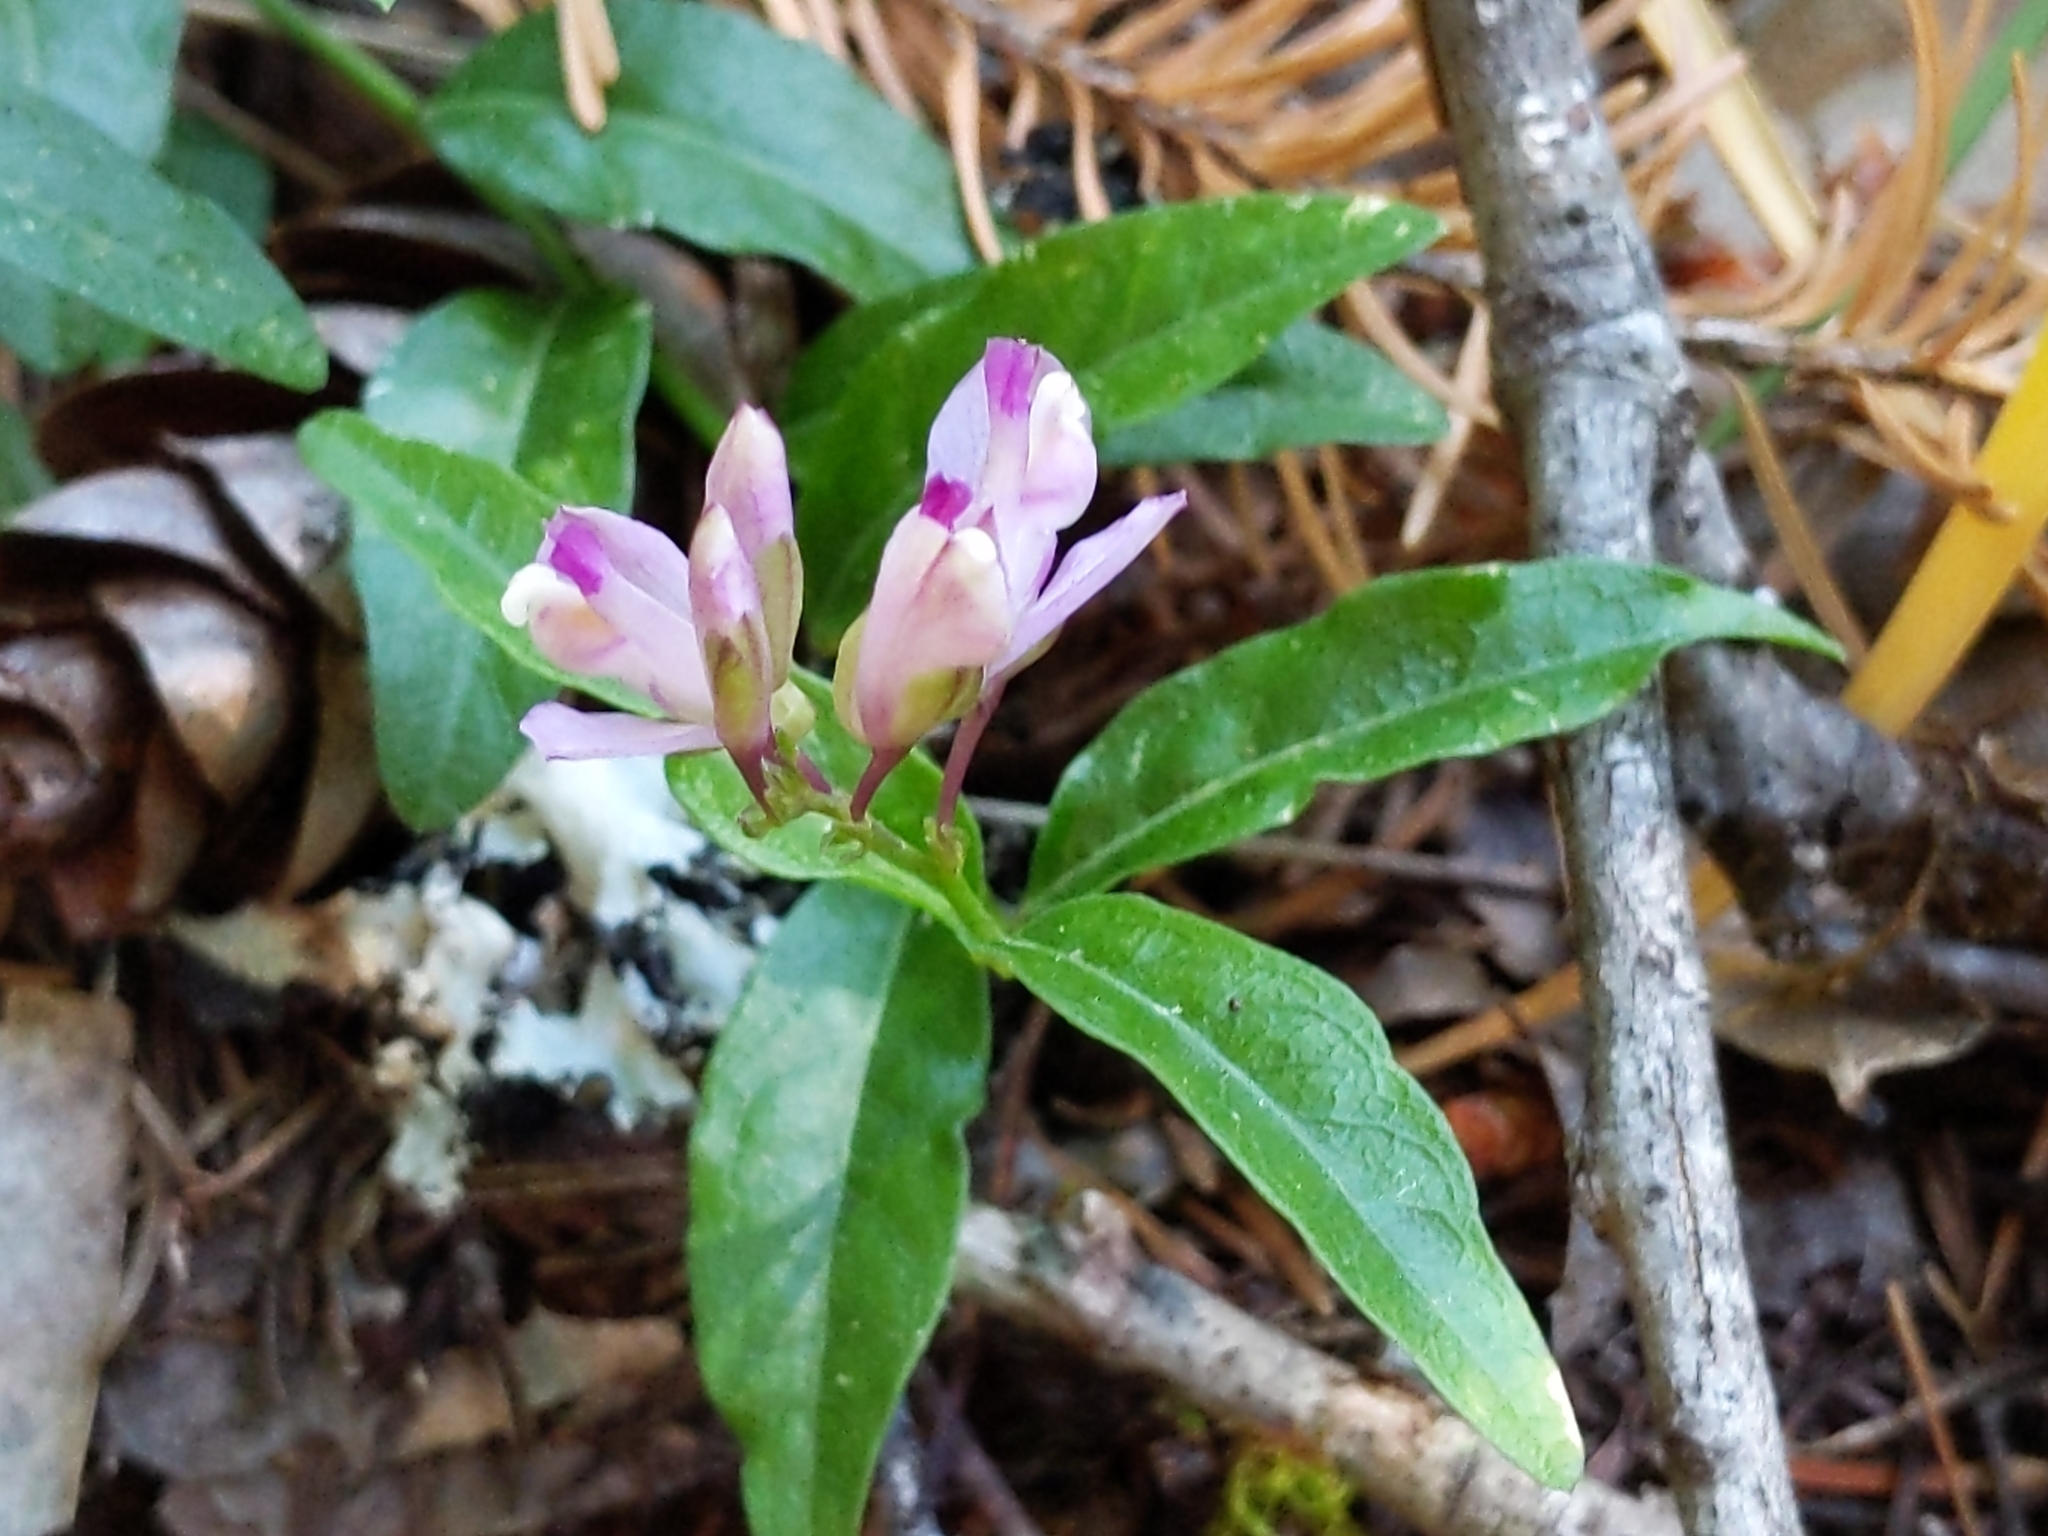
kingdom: Plantae
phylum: Tracheophyta
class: Magnoliopsida
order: Fabales
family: Polygalaceae
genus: Rhinotropis
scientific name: Rhinotropis californica
